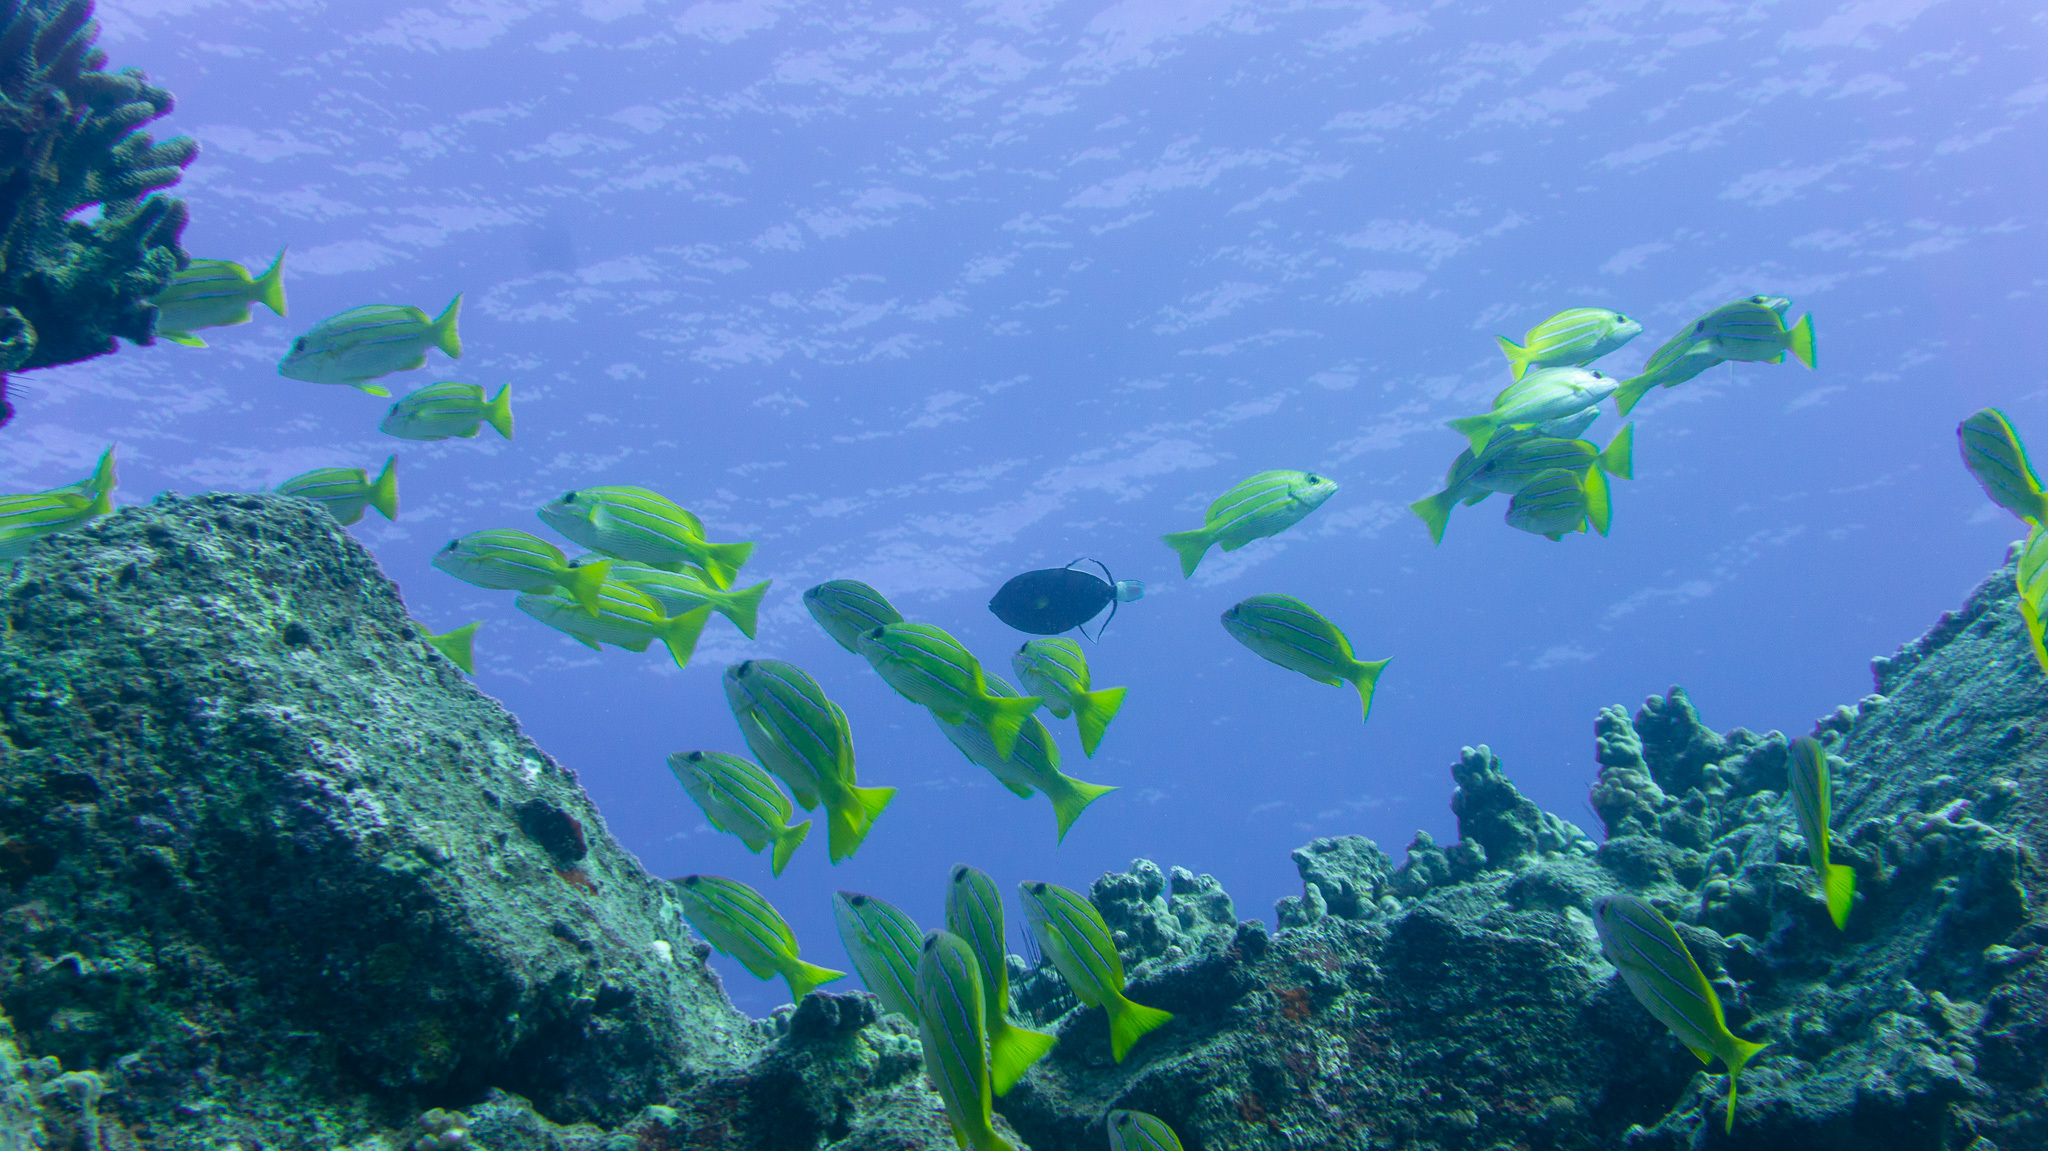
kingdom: Animalia
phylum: Chordata
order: Perciformes
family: Lutjanidae
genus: Lutjanus
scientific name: Lutjanus kasmira
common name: Common bluestripe snapper
